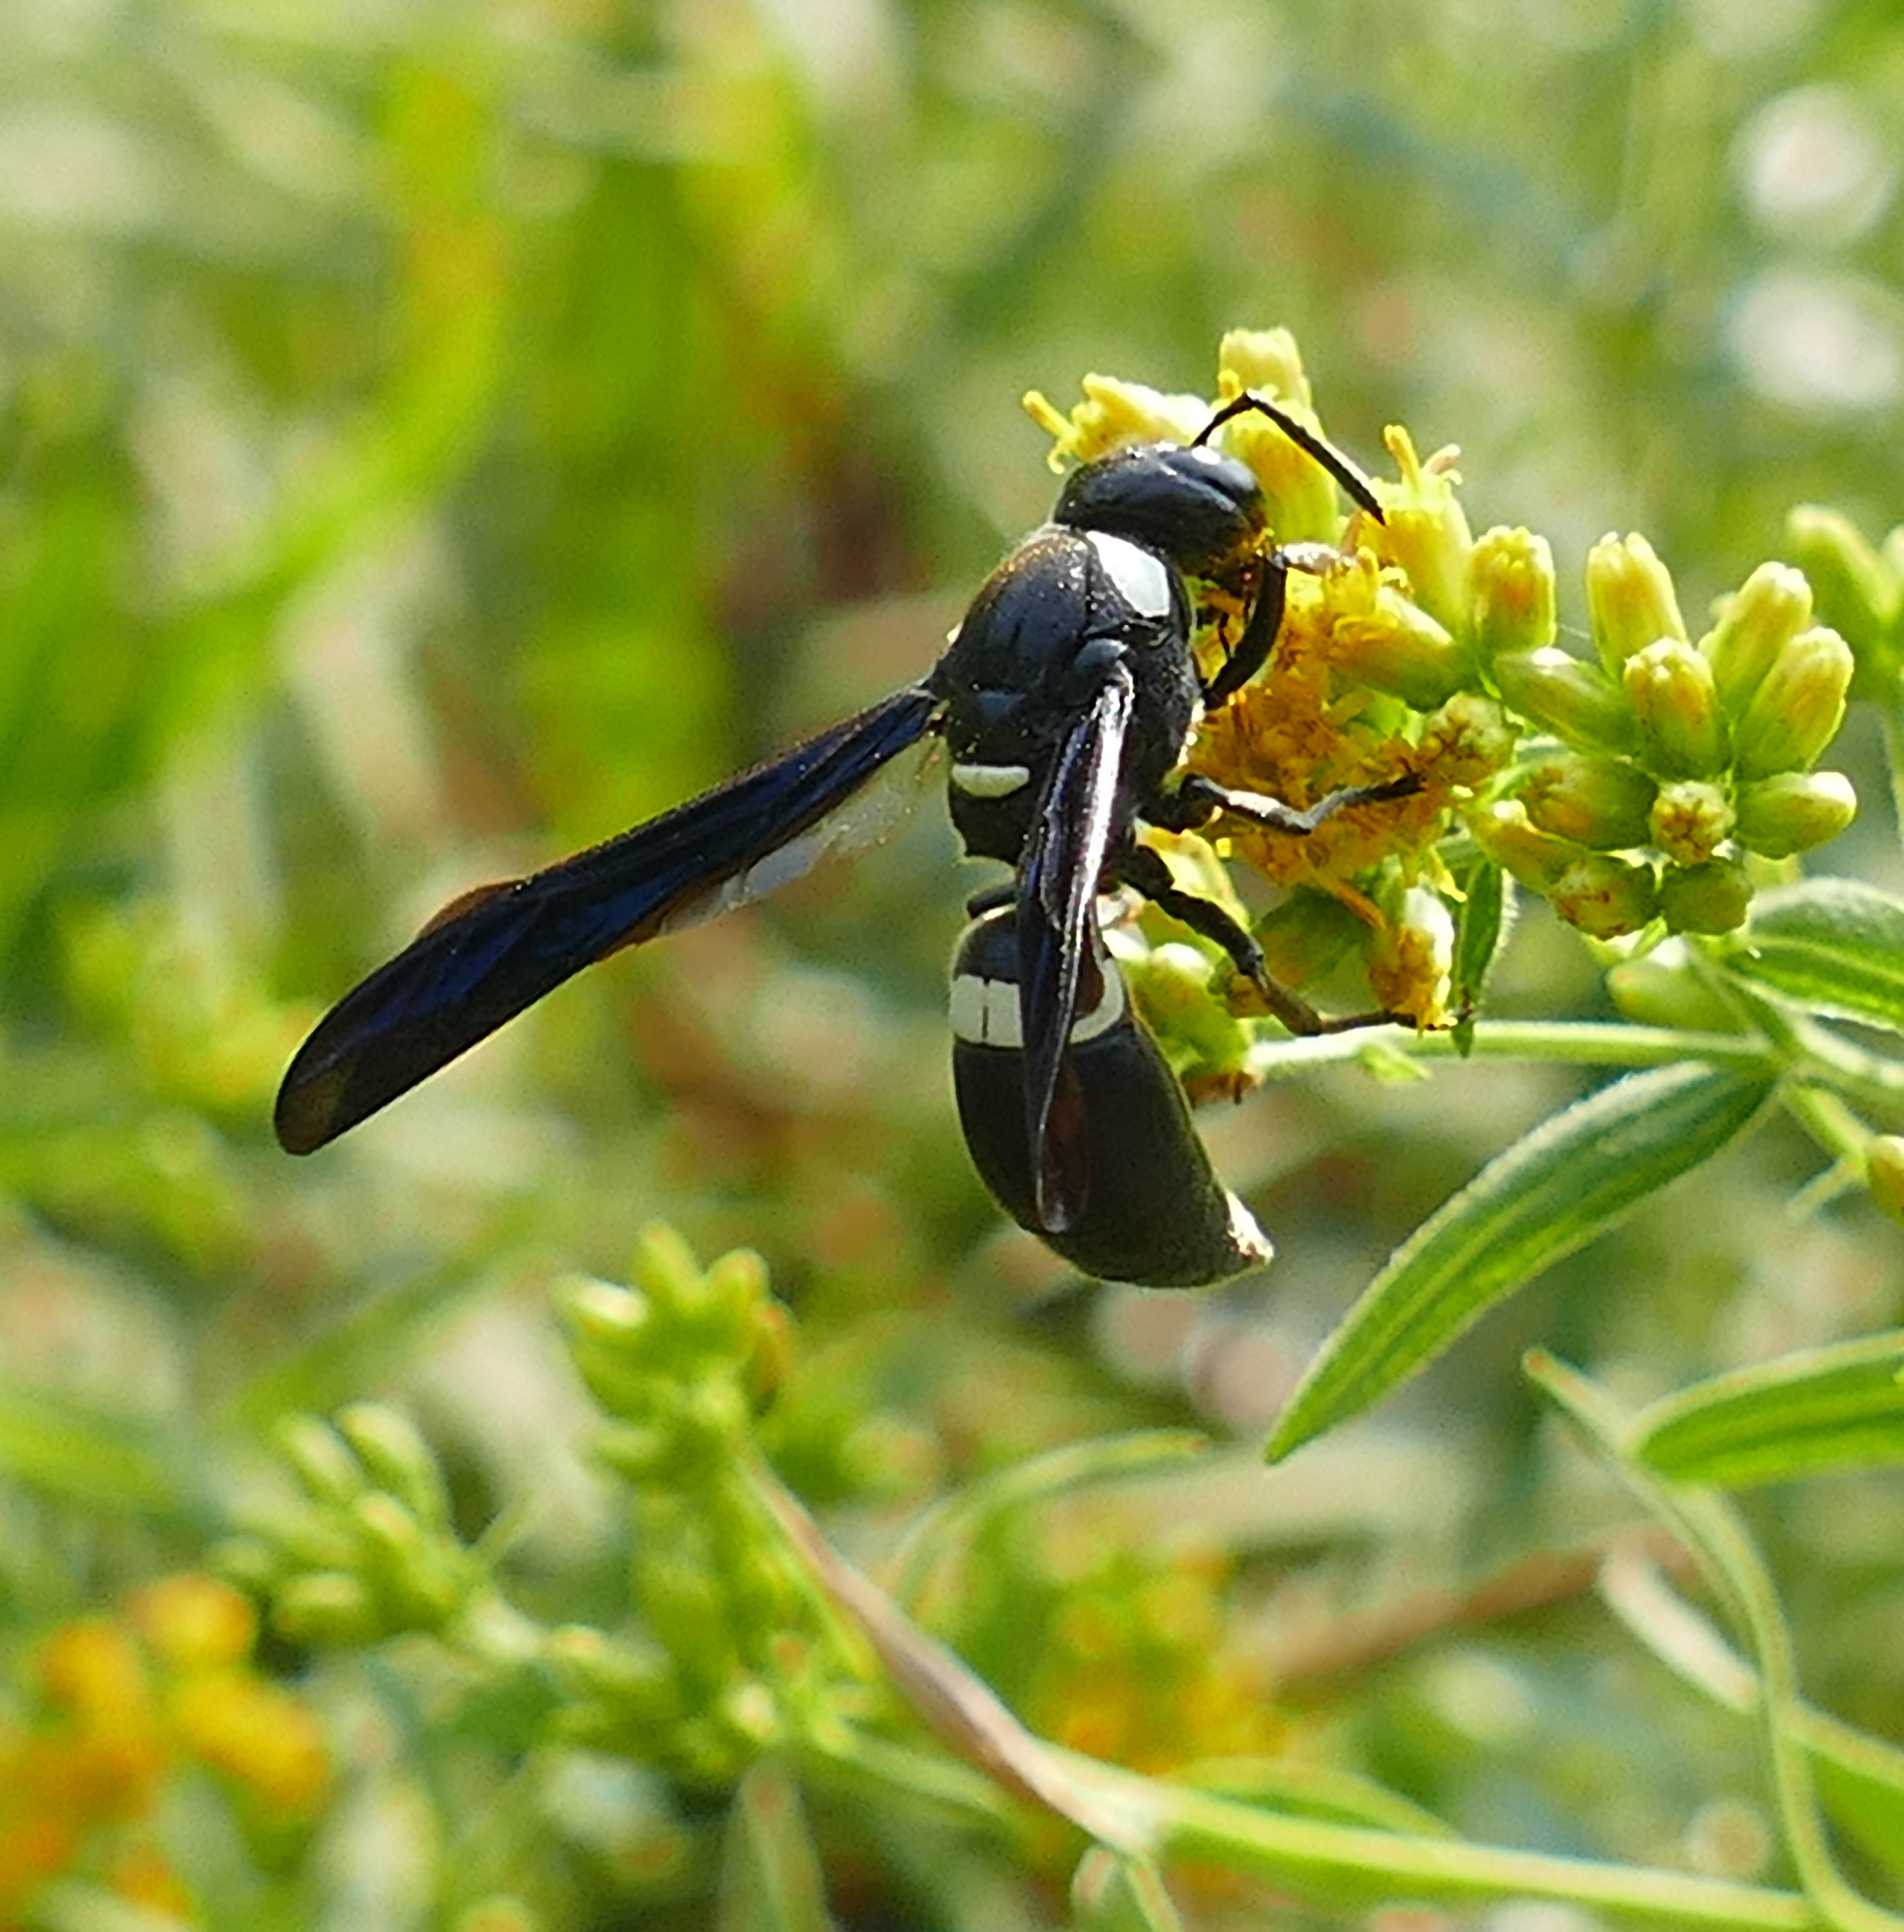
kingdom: Animalia
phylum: Arthropoda
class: Insecta
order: Hymenoptera
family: Eumenidae
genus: Monobia
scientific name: Monobia quadridens
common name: Four-toothed mason wasp
